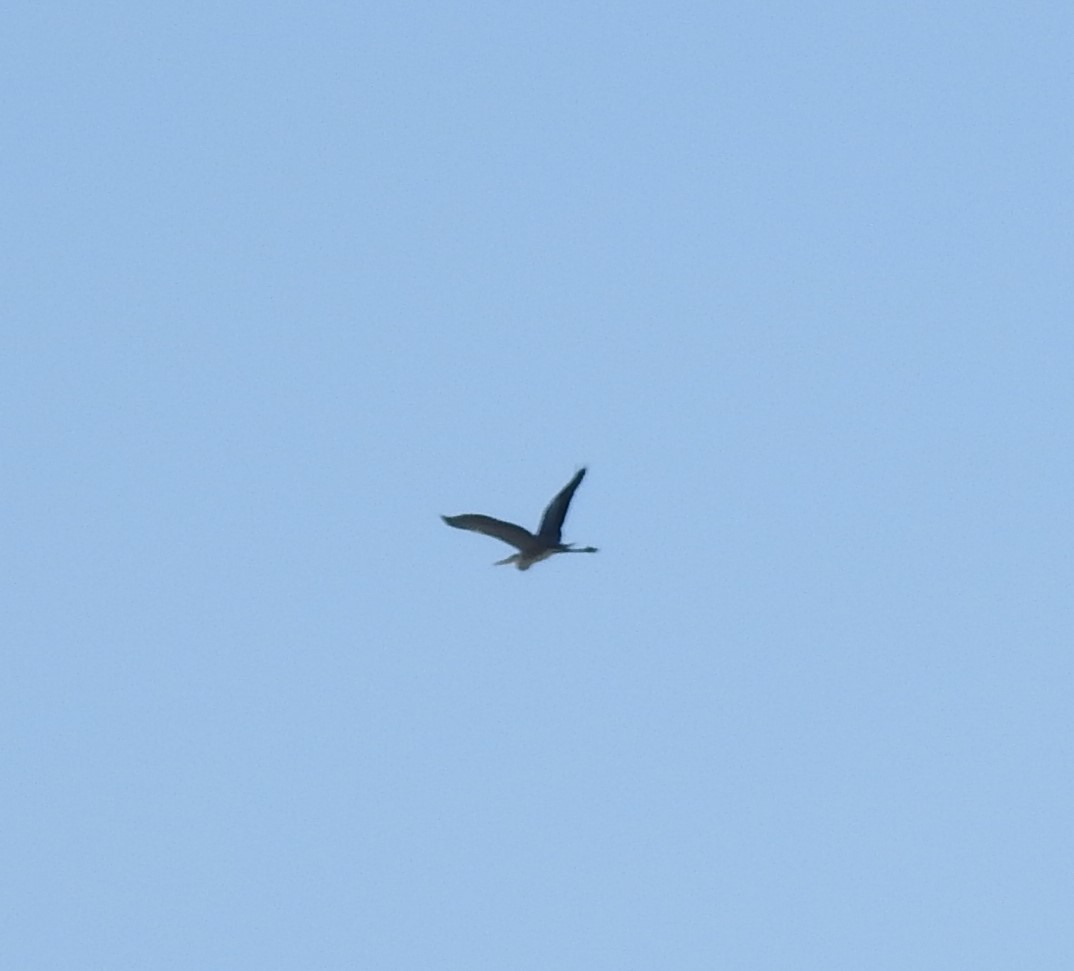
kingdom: Animalia
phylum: Chordata
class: Aves
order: Pelecaniformes
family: Ardeidae
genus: Ardea
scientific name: Ardea cinerea
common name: Grey heron
